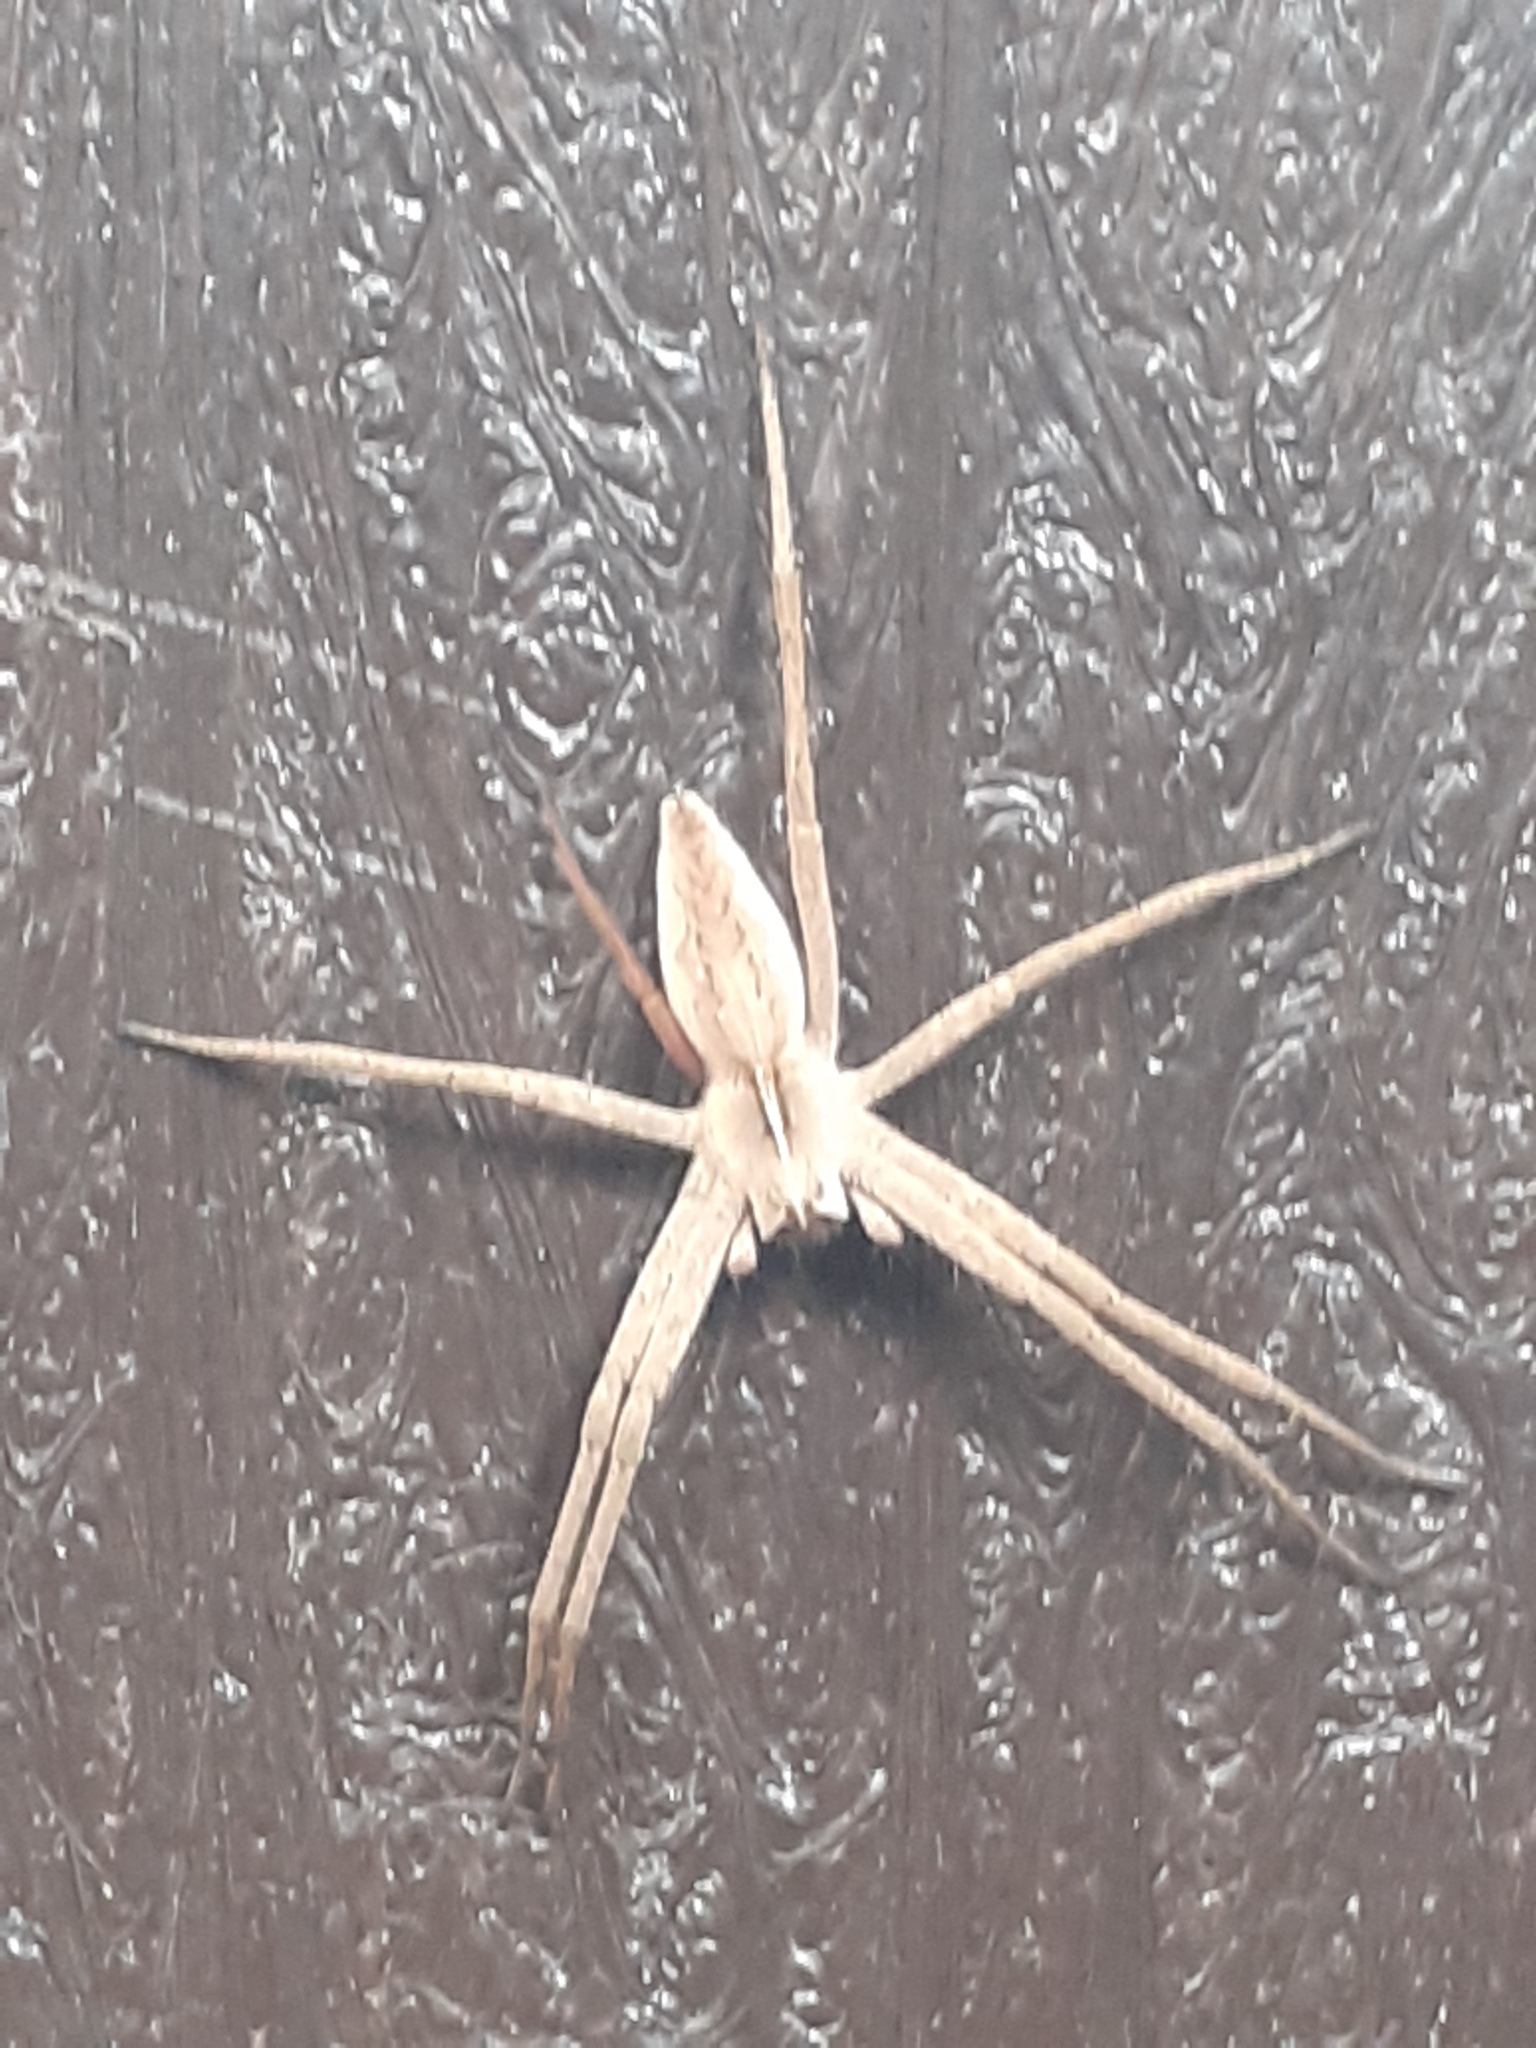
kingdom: Animalia
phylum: Arthropoda
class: Arachnida
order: Araneae
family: Pisauridae
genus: Pisaura
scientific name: Pisaura mirabilis
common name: Tent spider
